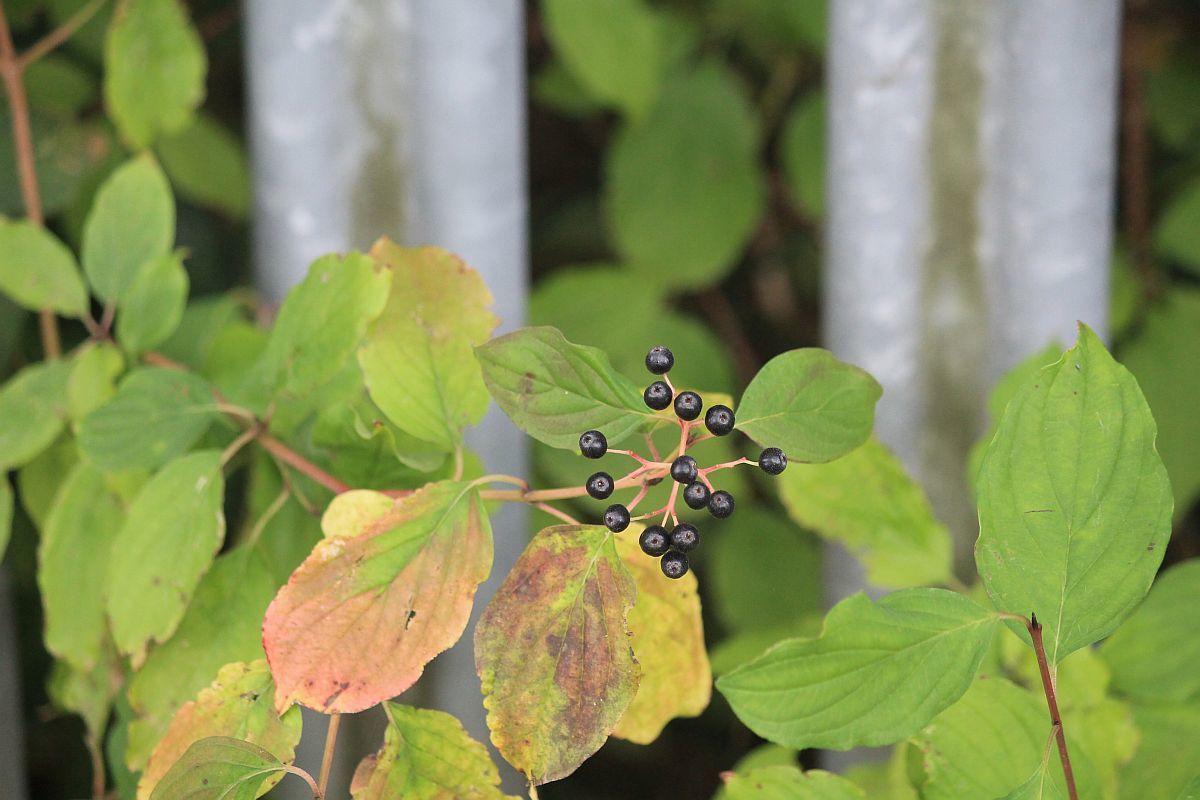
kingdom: Plantae
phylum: Tracheophyta
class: Magnoliopsida
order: Cornales
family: Cornaceae
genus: Cornus
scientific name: Cornus sanguinea
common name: Dogwood
